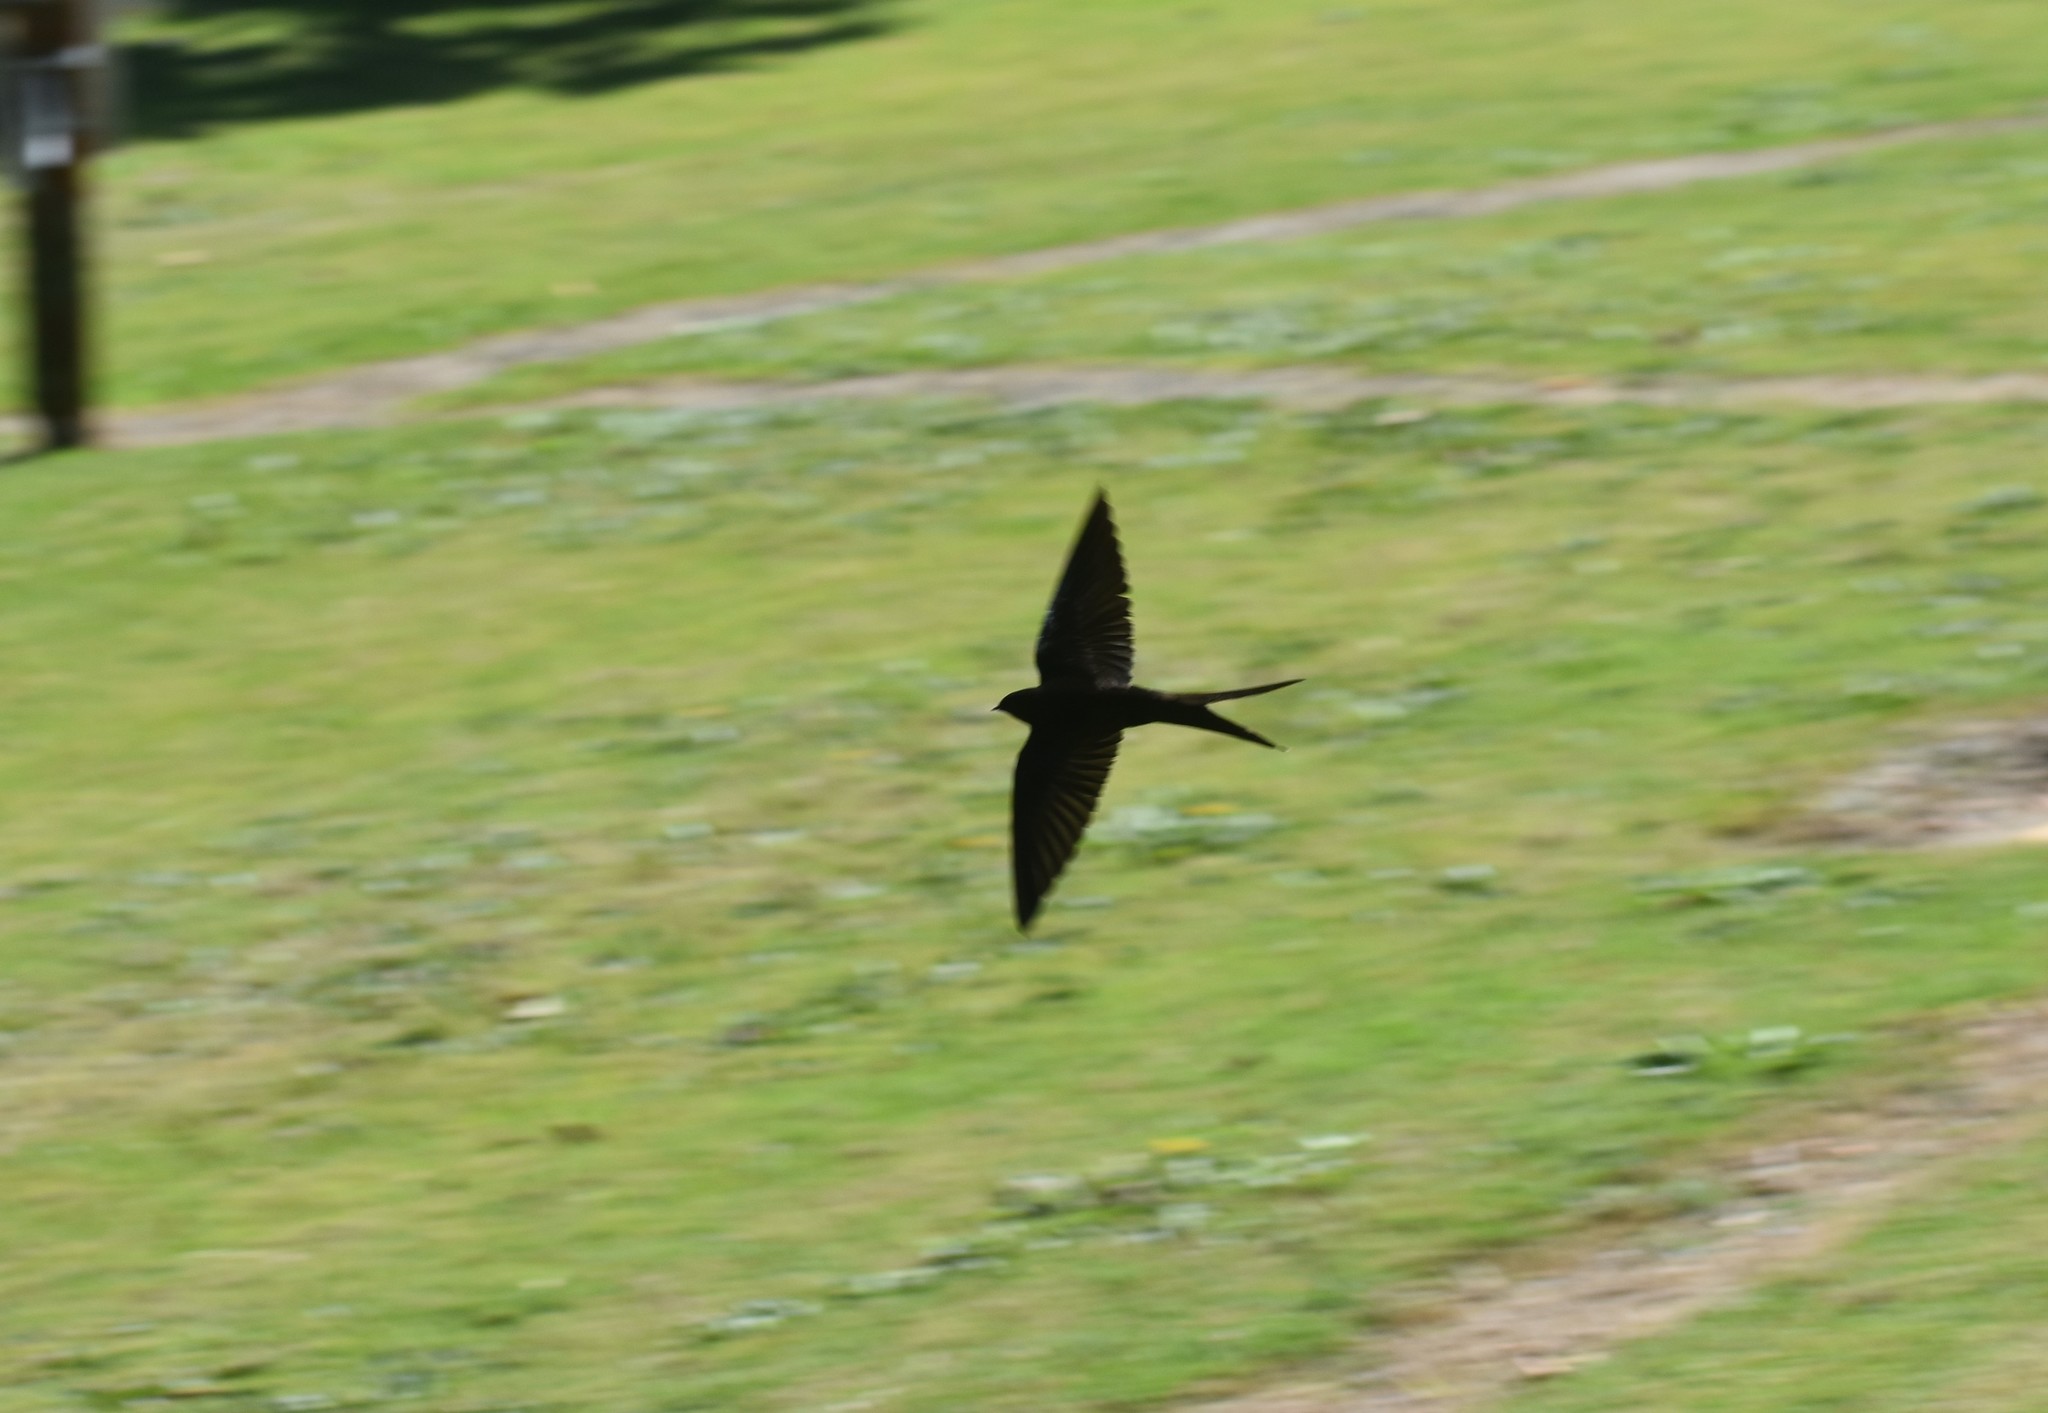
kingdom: Animalia
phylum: Chordata
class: Aves
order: Passeriformes
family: Hirundinidae
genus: Psalidoprocne
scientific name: Psalidoprocne pristoptera
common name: Black saw-wing
